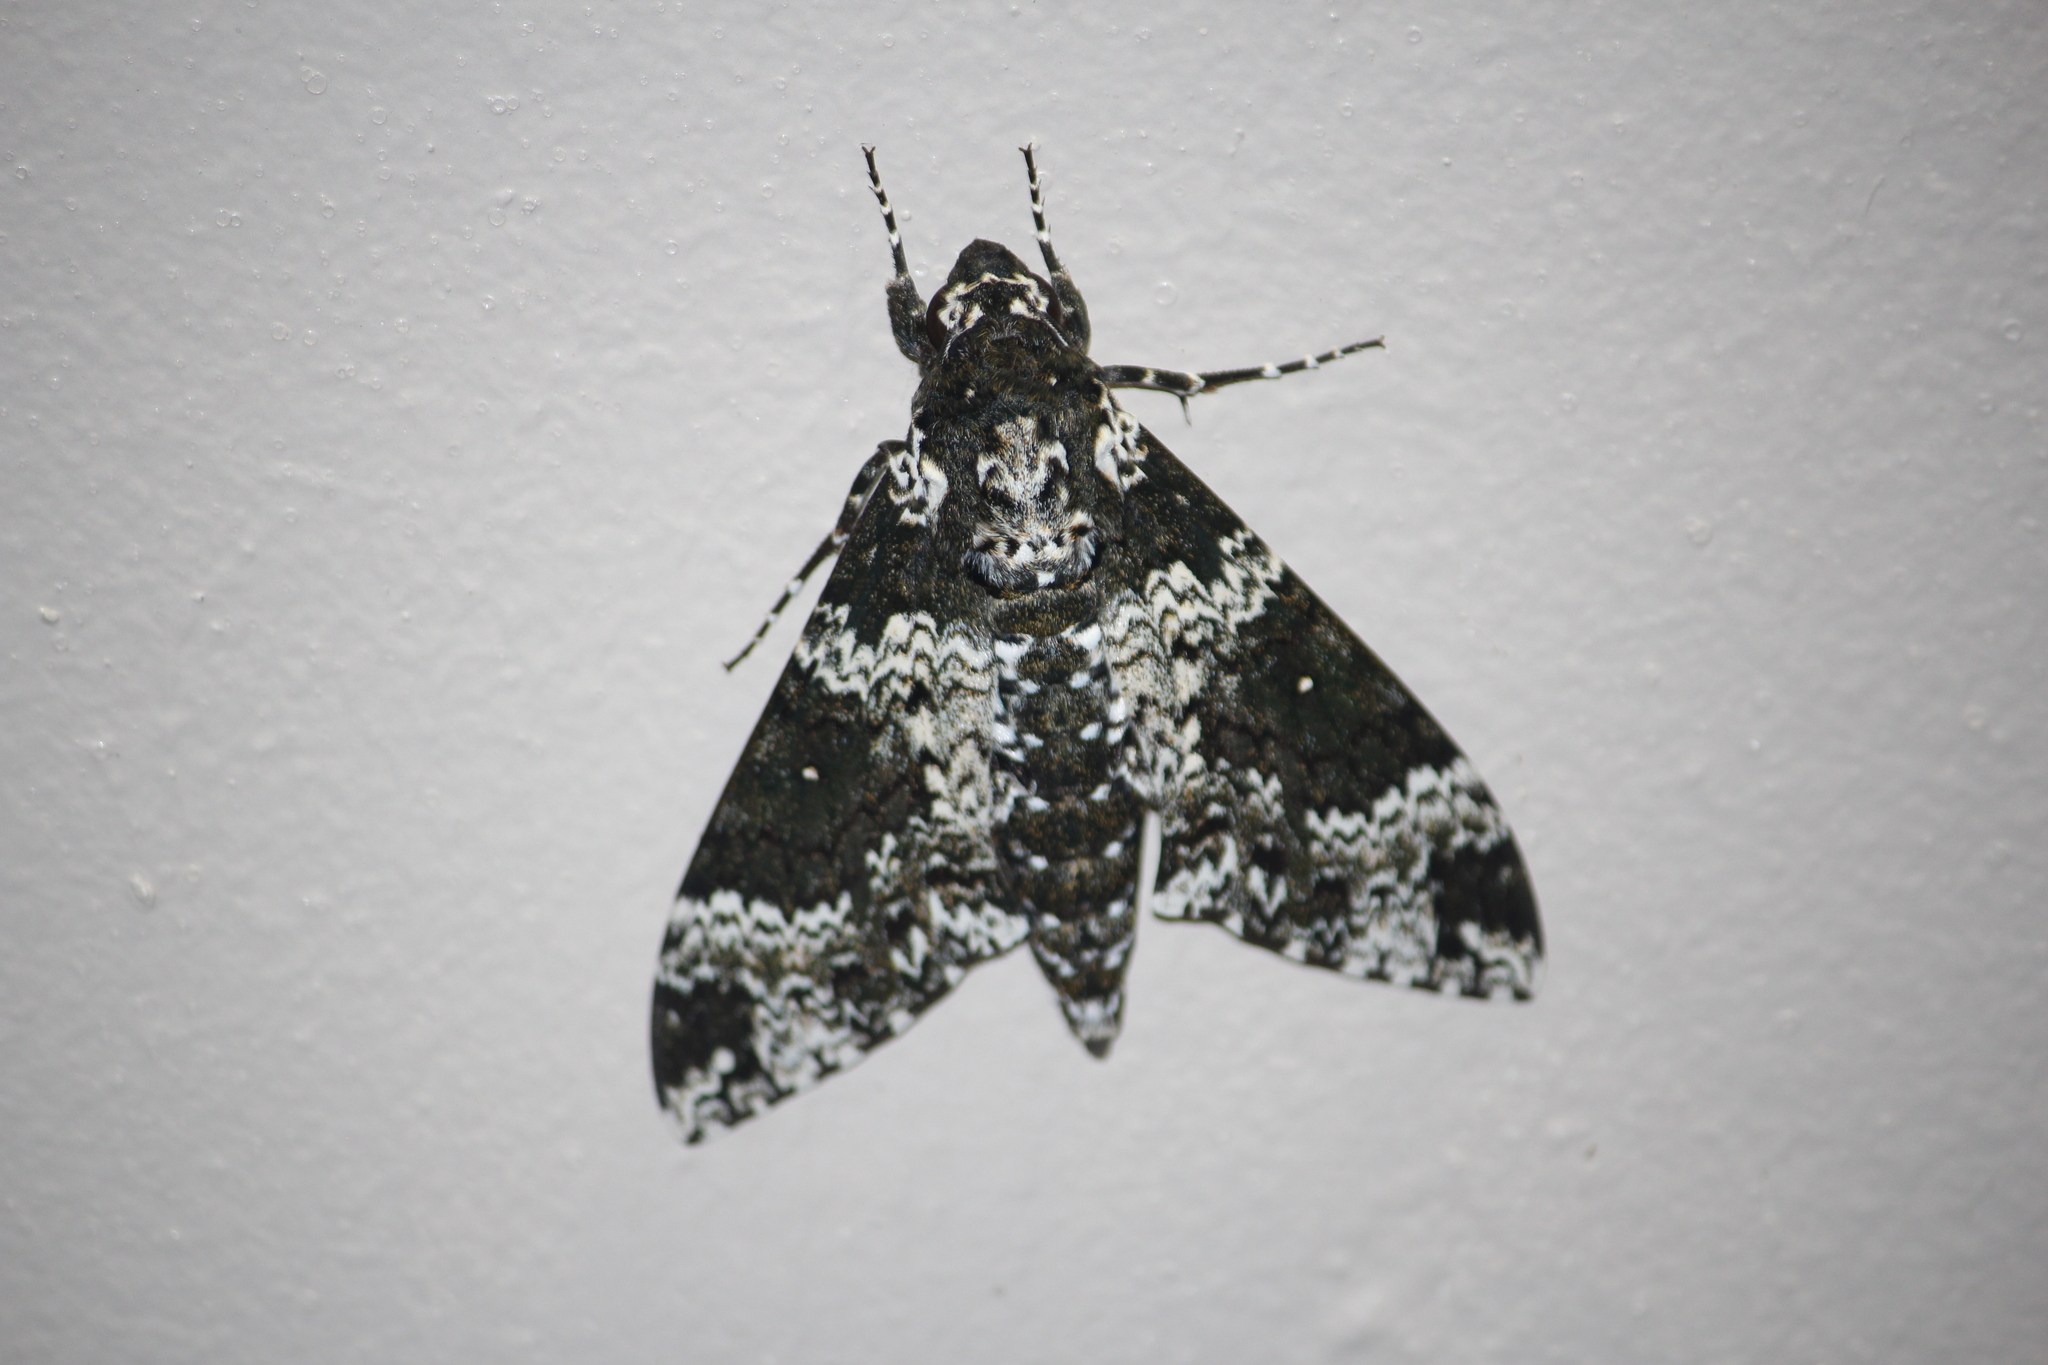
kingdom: Animalia
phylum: Arthropoda
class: Insecta
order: Lepidoptera
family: Sphingidae
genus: Manduca
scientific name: Manduca rustica
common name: Rustic sphinx
